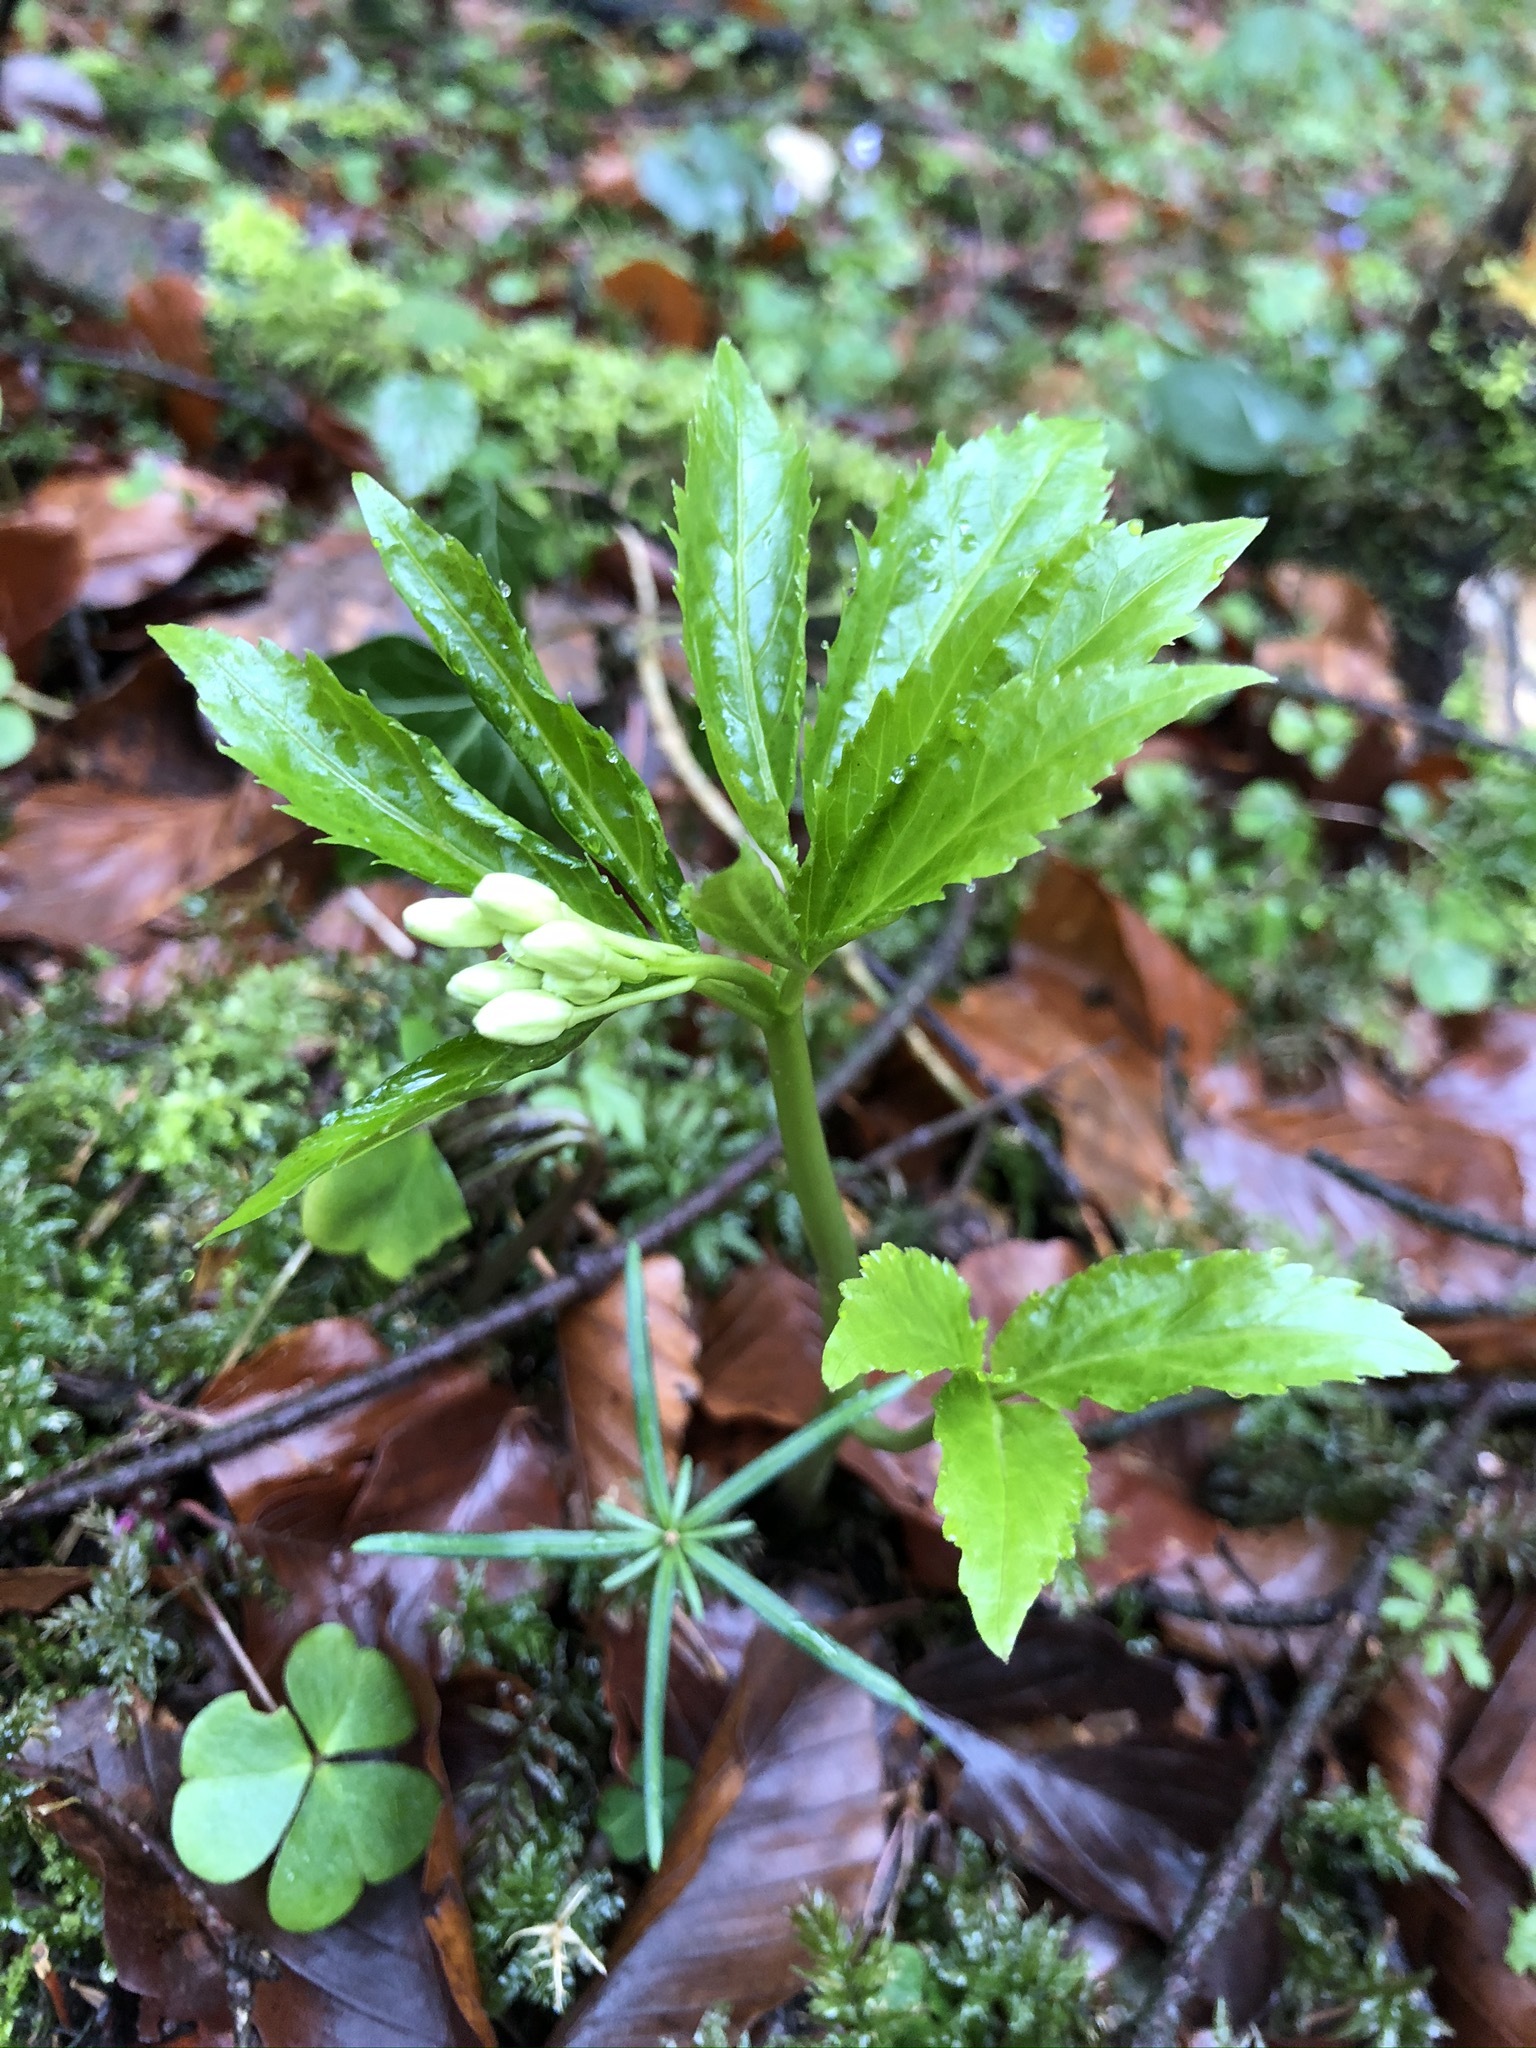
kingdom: Plantae
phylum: Tracheophyta
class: Magnoliopsida
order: Brassicales
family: Brassicaceae
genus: Cardamine
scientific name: Cardamine enneaphyllos
